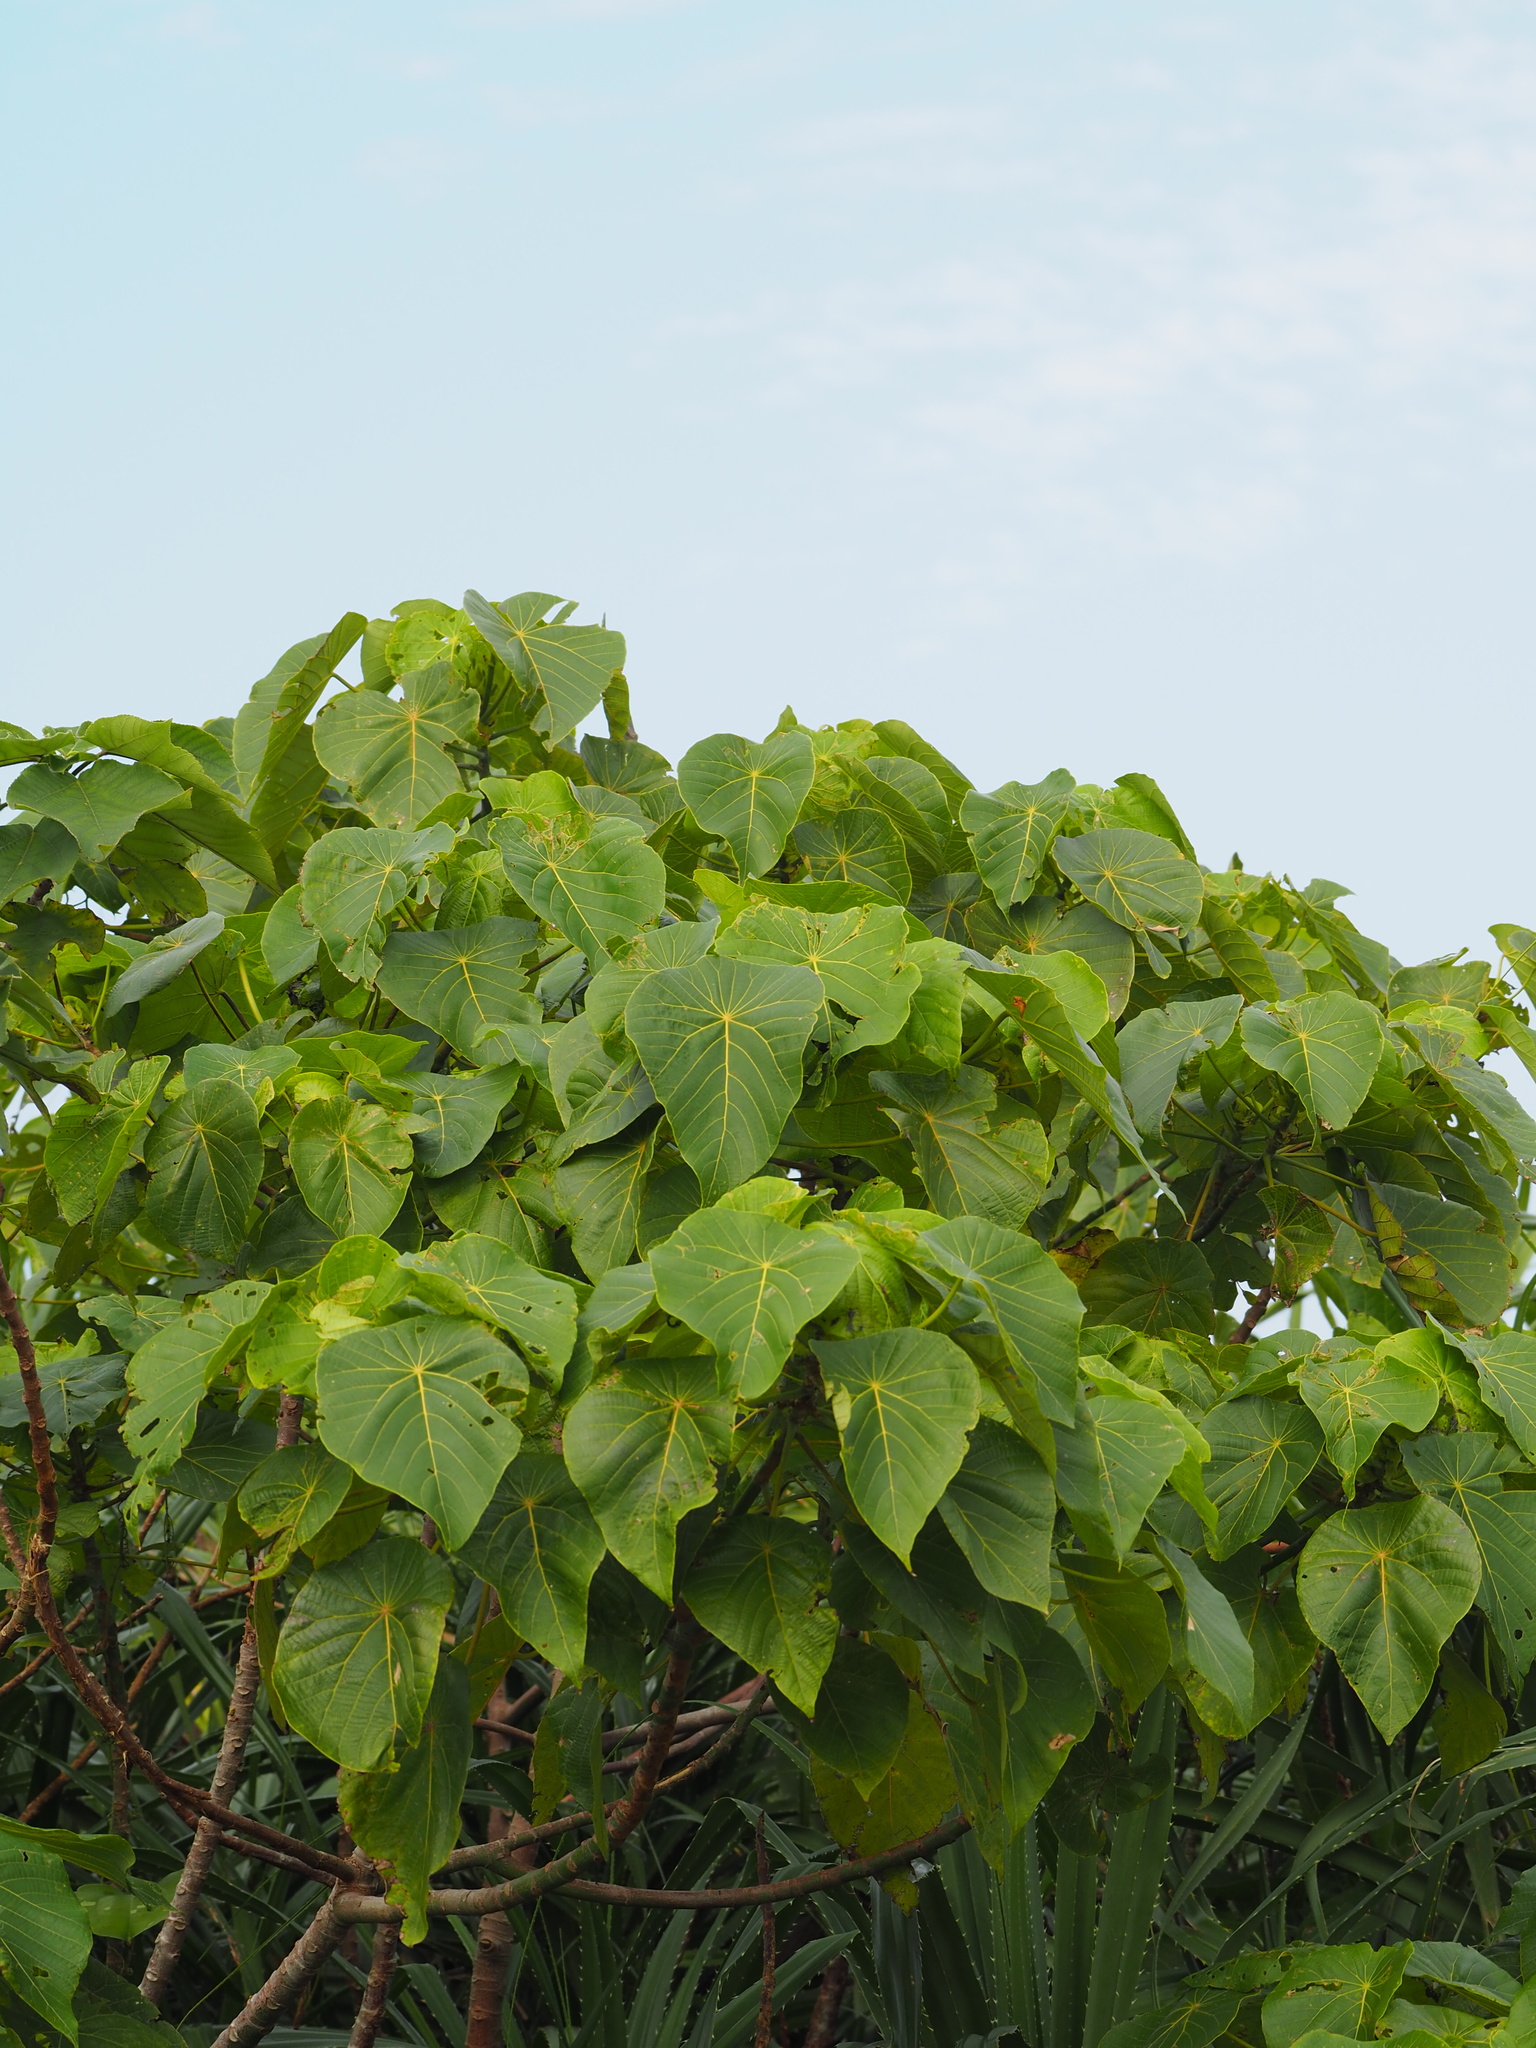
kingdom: Plantae
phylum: Tracheophyta
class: Magnoliopsida
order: Malpighiales
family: Euphorbiaceae
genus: Macaranga
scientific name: Macaranga tanarius
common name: Parasol leaf tree
